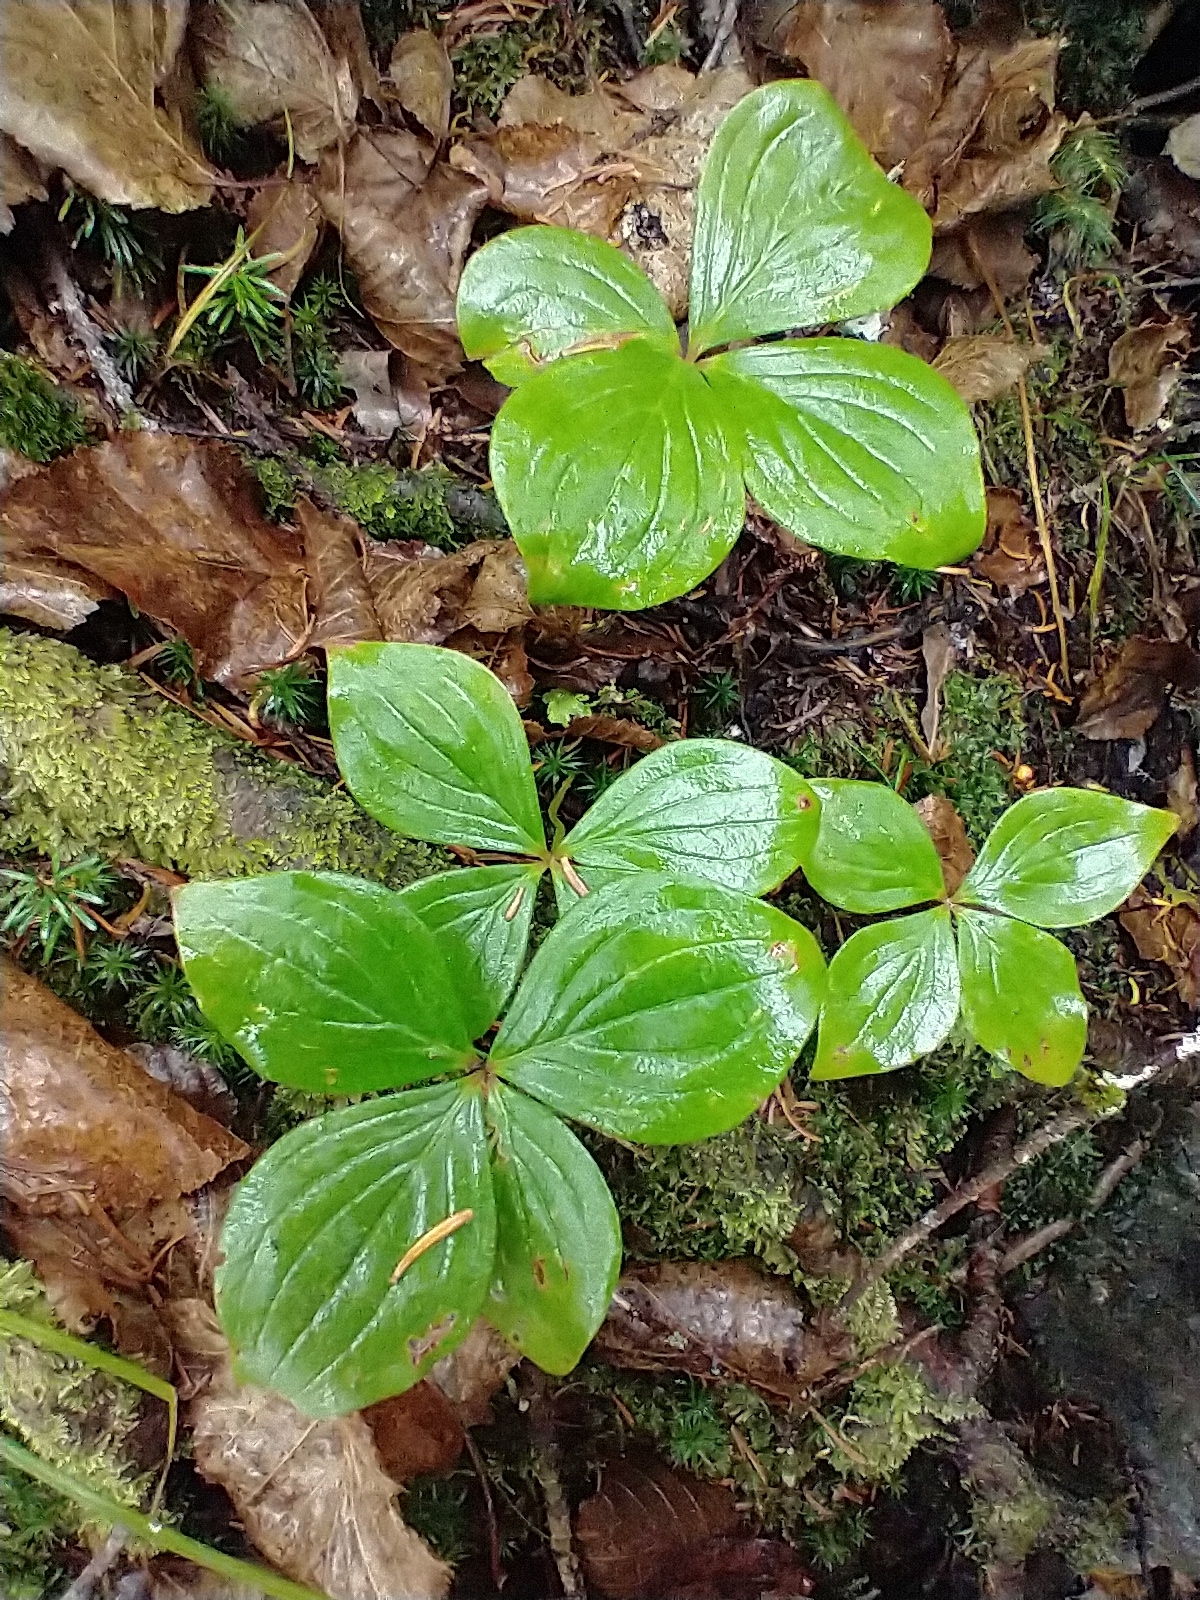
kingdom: Plantae
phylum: Tracheophyta
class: Magnoliopsida
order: Cornales
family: Cornaceae
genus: Cornus
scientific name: Cornus canadensis
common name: Creeping dogwood
